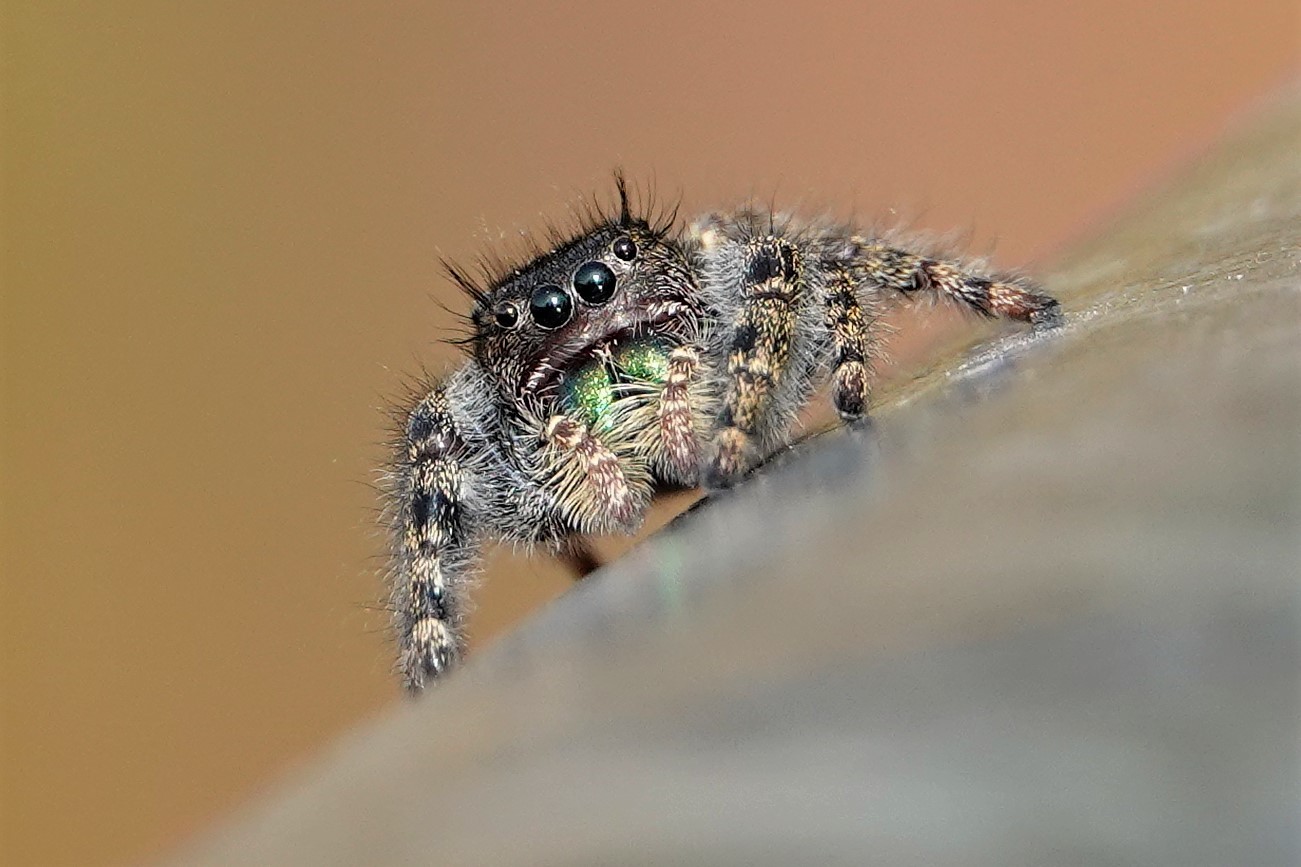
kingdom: Animalia
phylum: Arthropoda
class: Arachnida
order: Araneae
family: Salticidae
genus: Phidippus
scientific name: Phidippus audax
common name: Bold jumper
